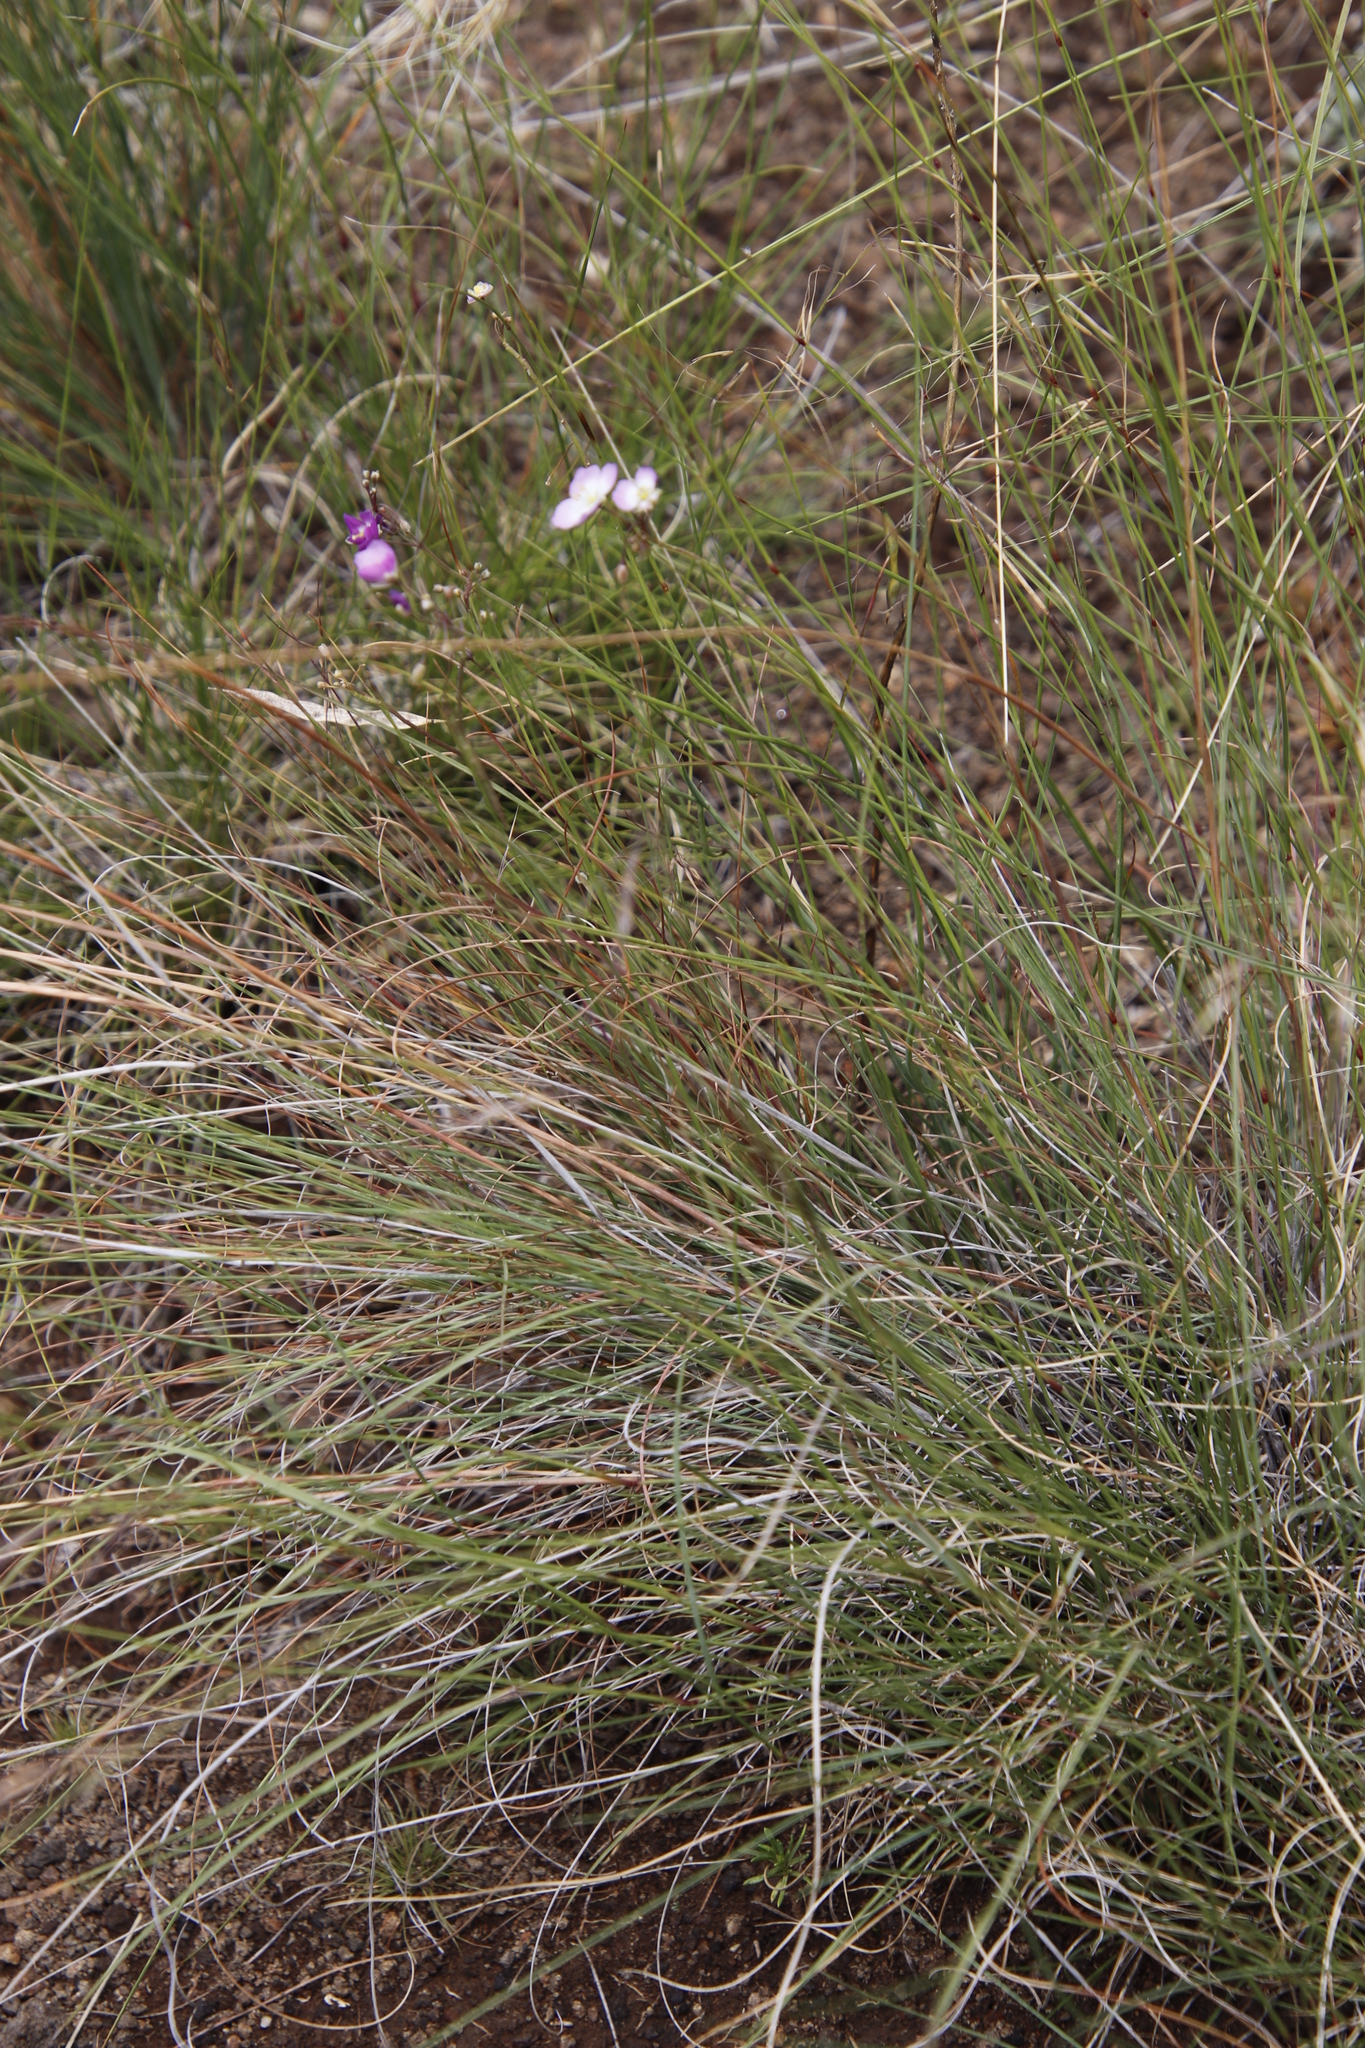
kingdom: Plantae
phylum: Tracheophyta
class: Magnoliopsida
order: Brassicales
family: Brassicaceae
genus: Heliophila
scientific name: Heliophila carnosa
